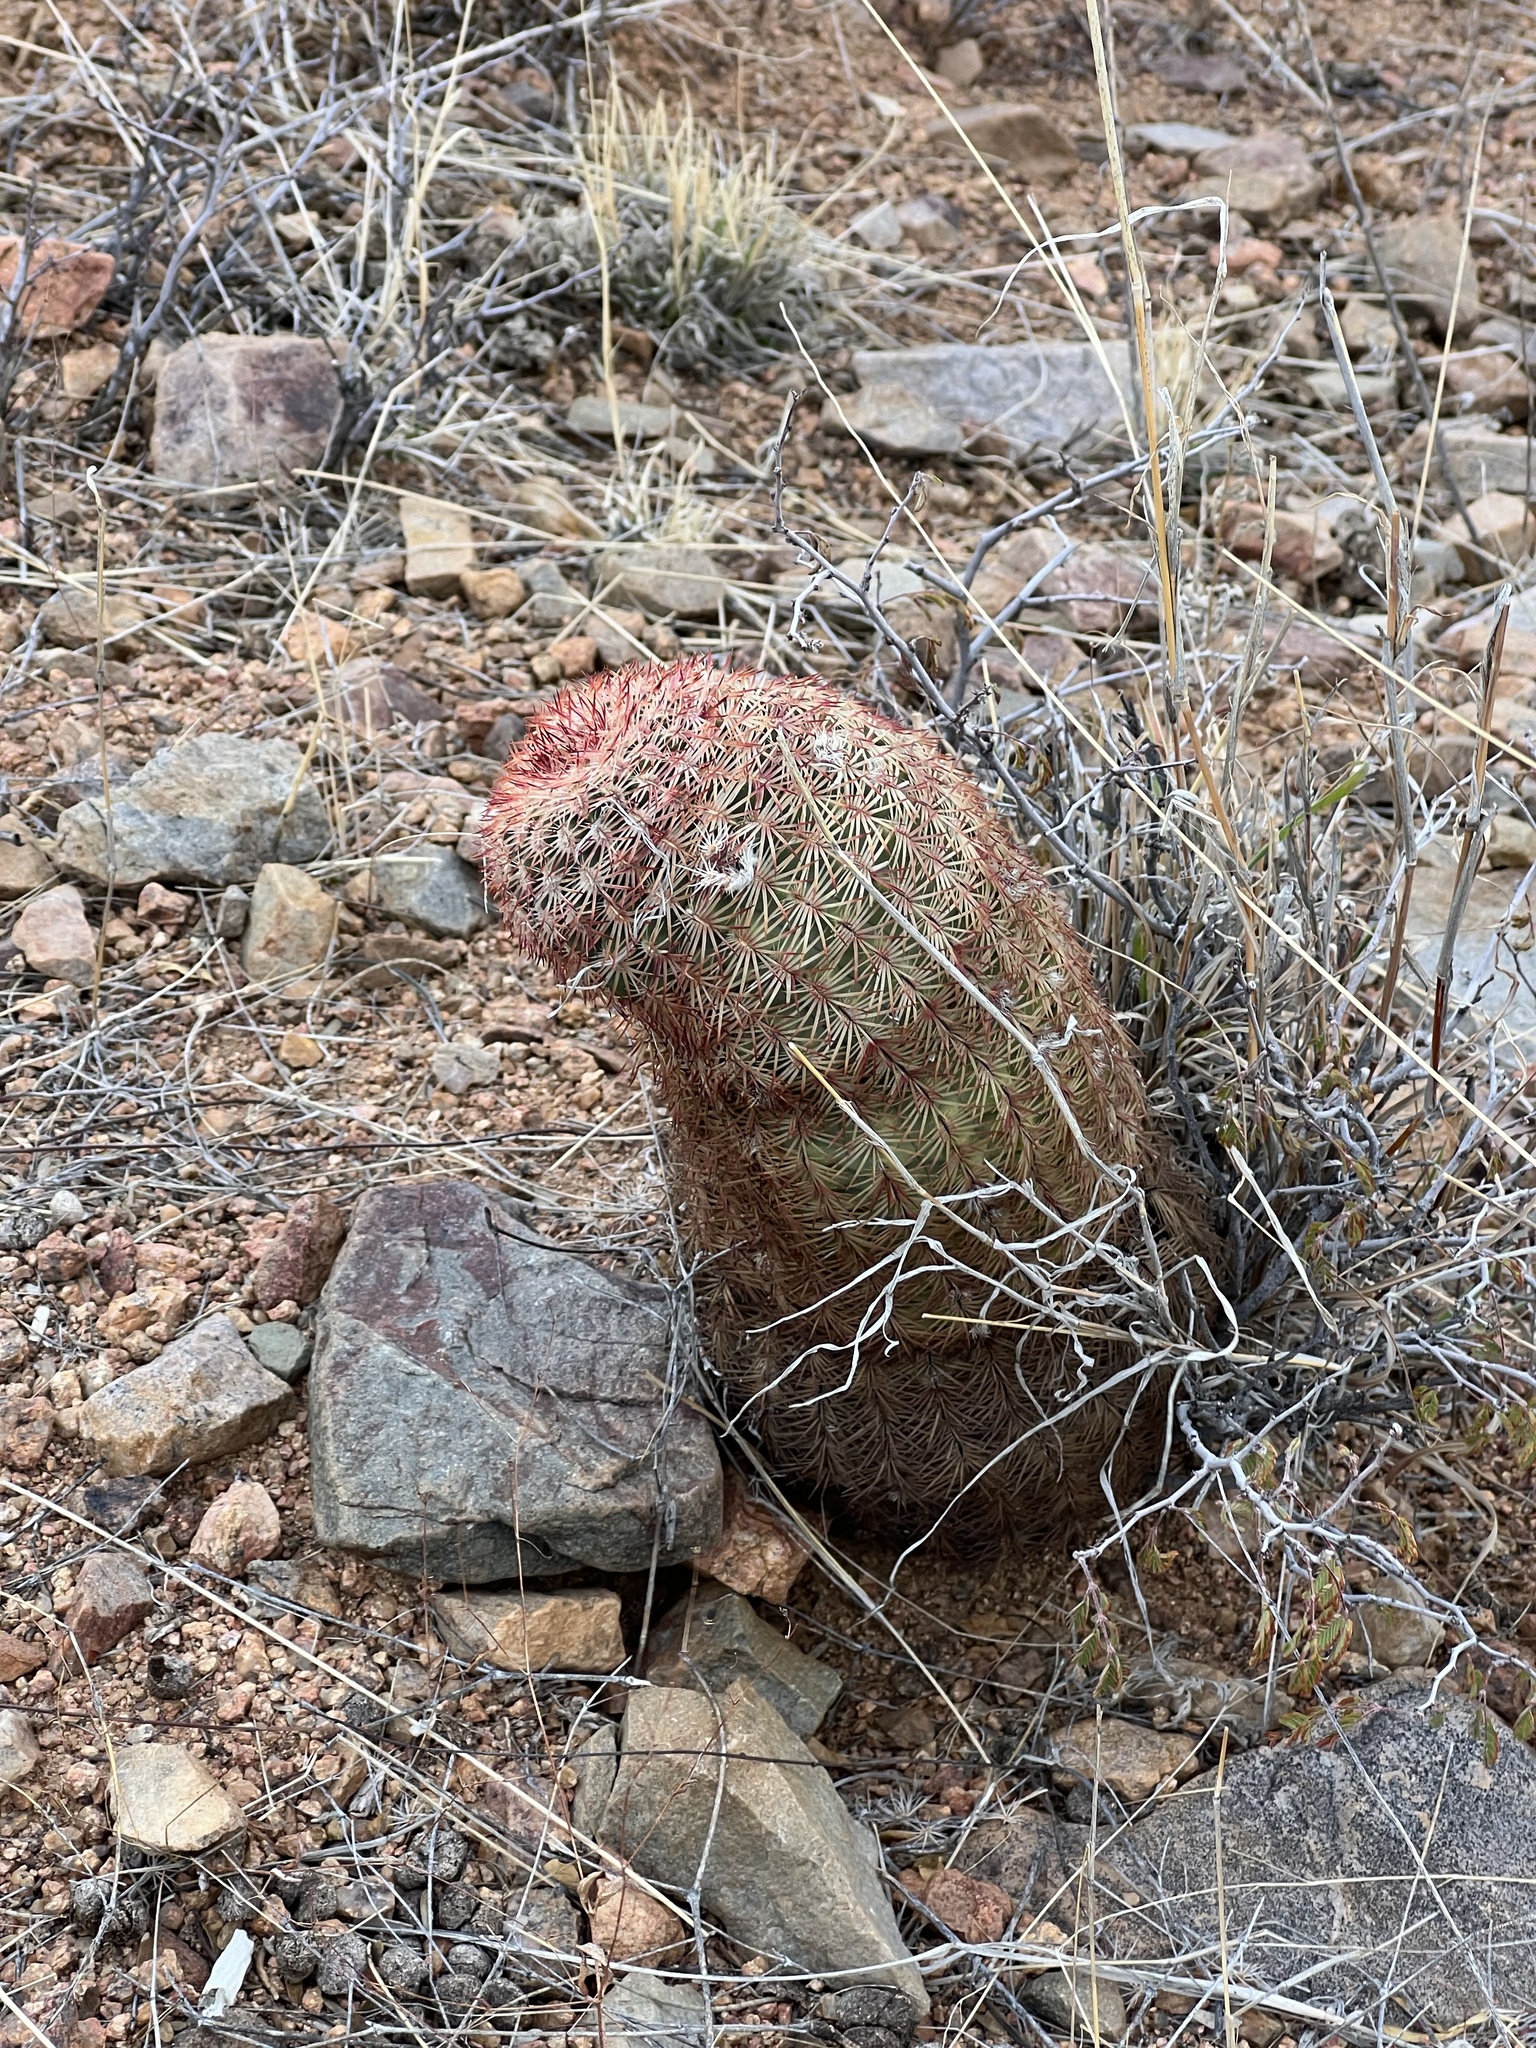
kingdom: Plantae
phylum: Tracheophyta
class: Magnoliopsida
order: Caryophyllales
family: Cactaceae
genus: Echinocereus
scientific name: Echinocereus rigidissimus
